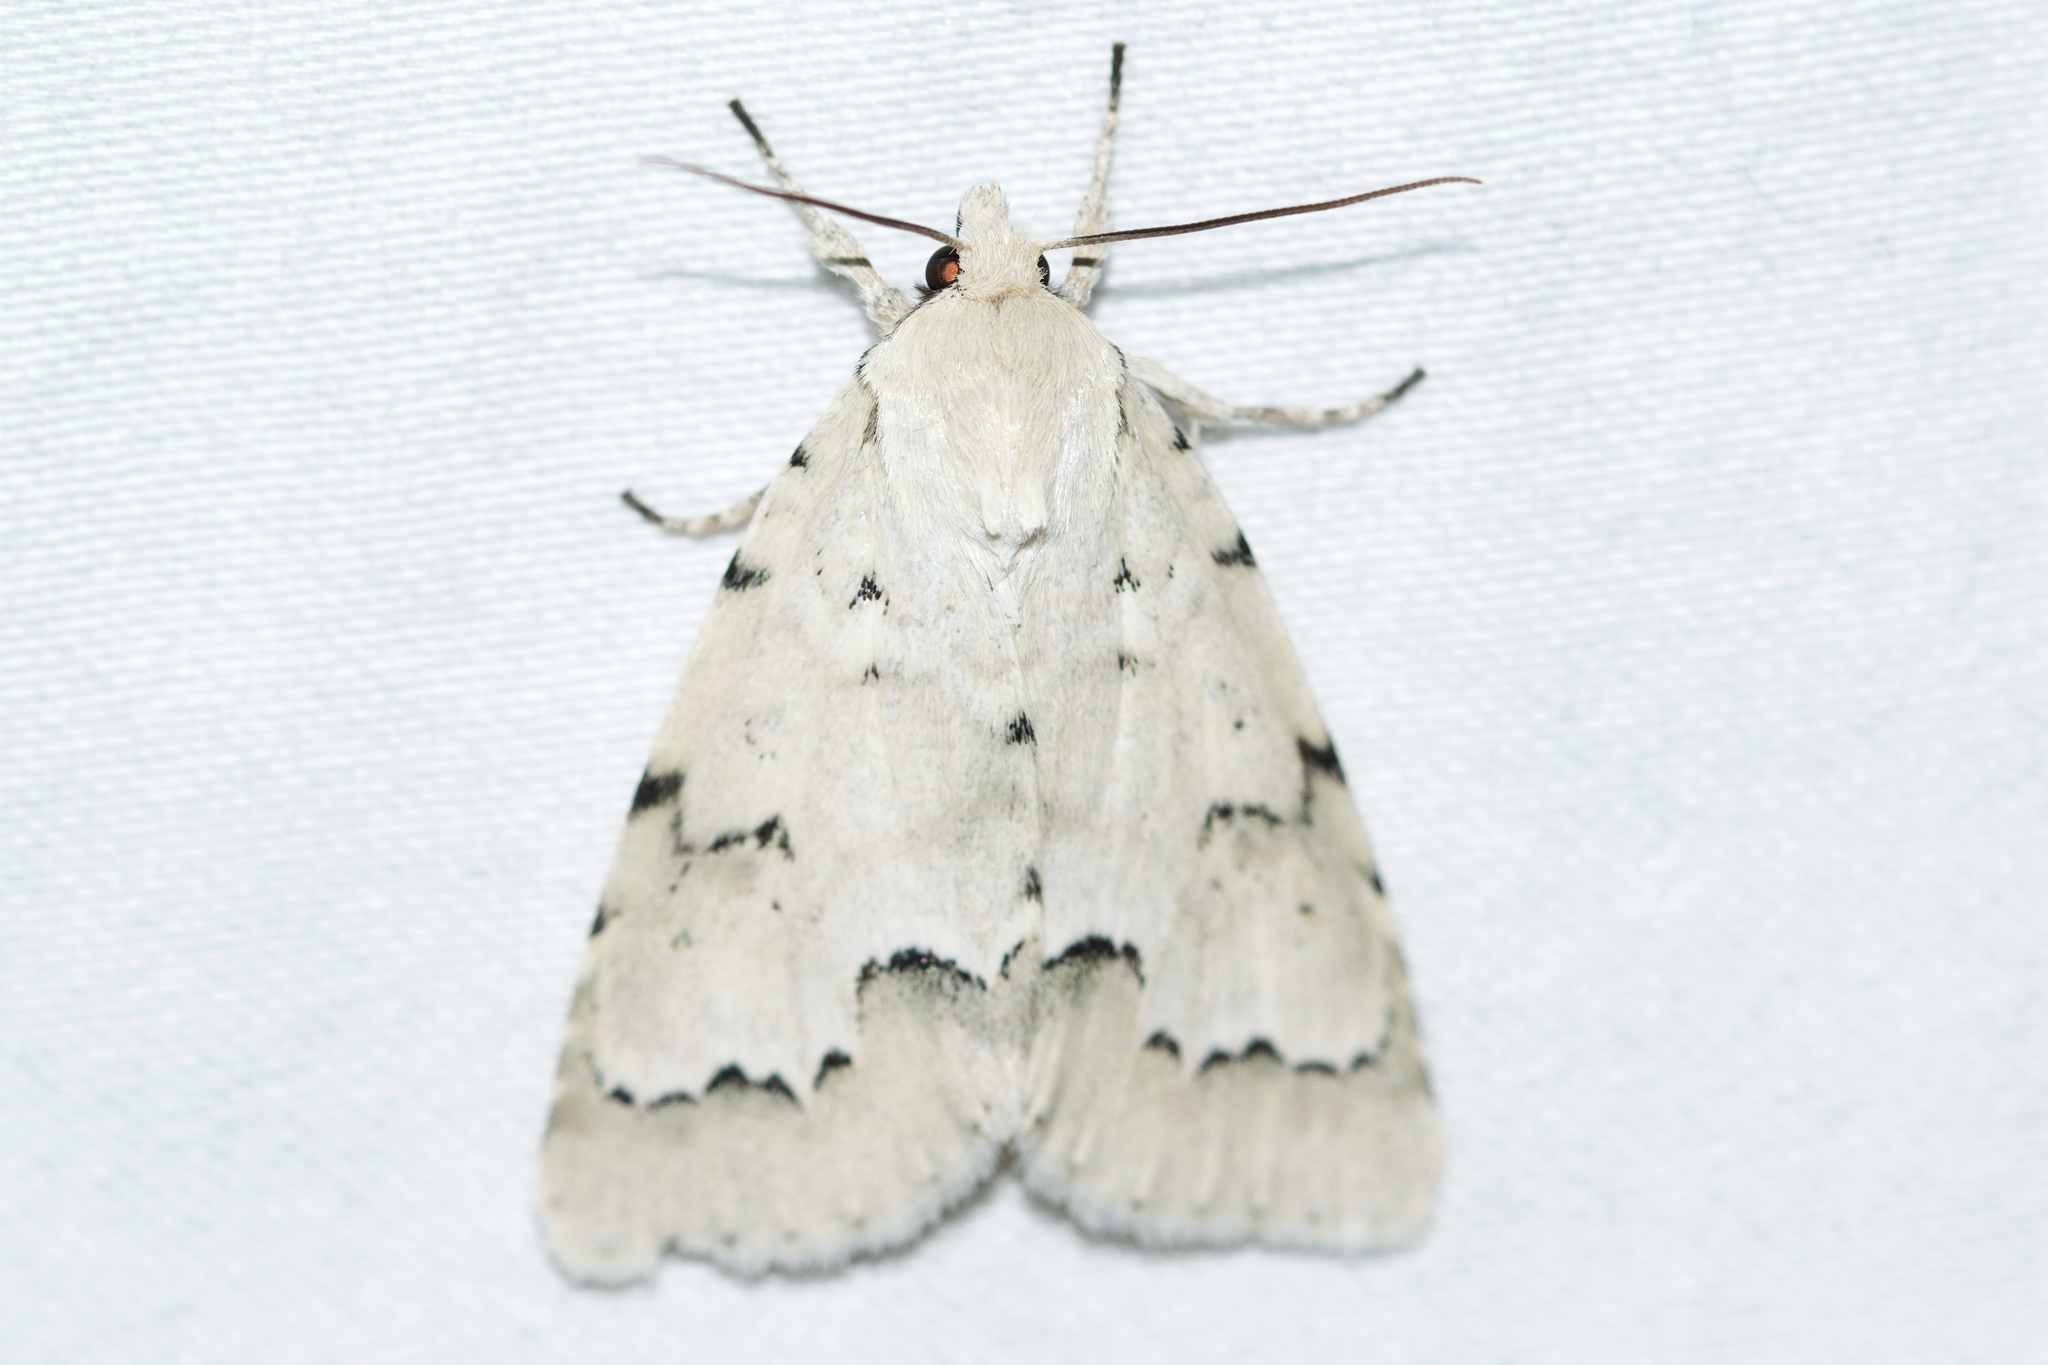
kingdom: Animalia
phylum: Arthropoda
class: Insecta
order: Lepidoptera
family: Noctuidae
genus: Acronicta
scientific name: Acronicta innotata
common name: Unmarked dagger
